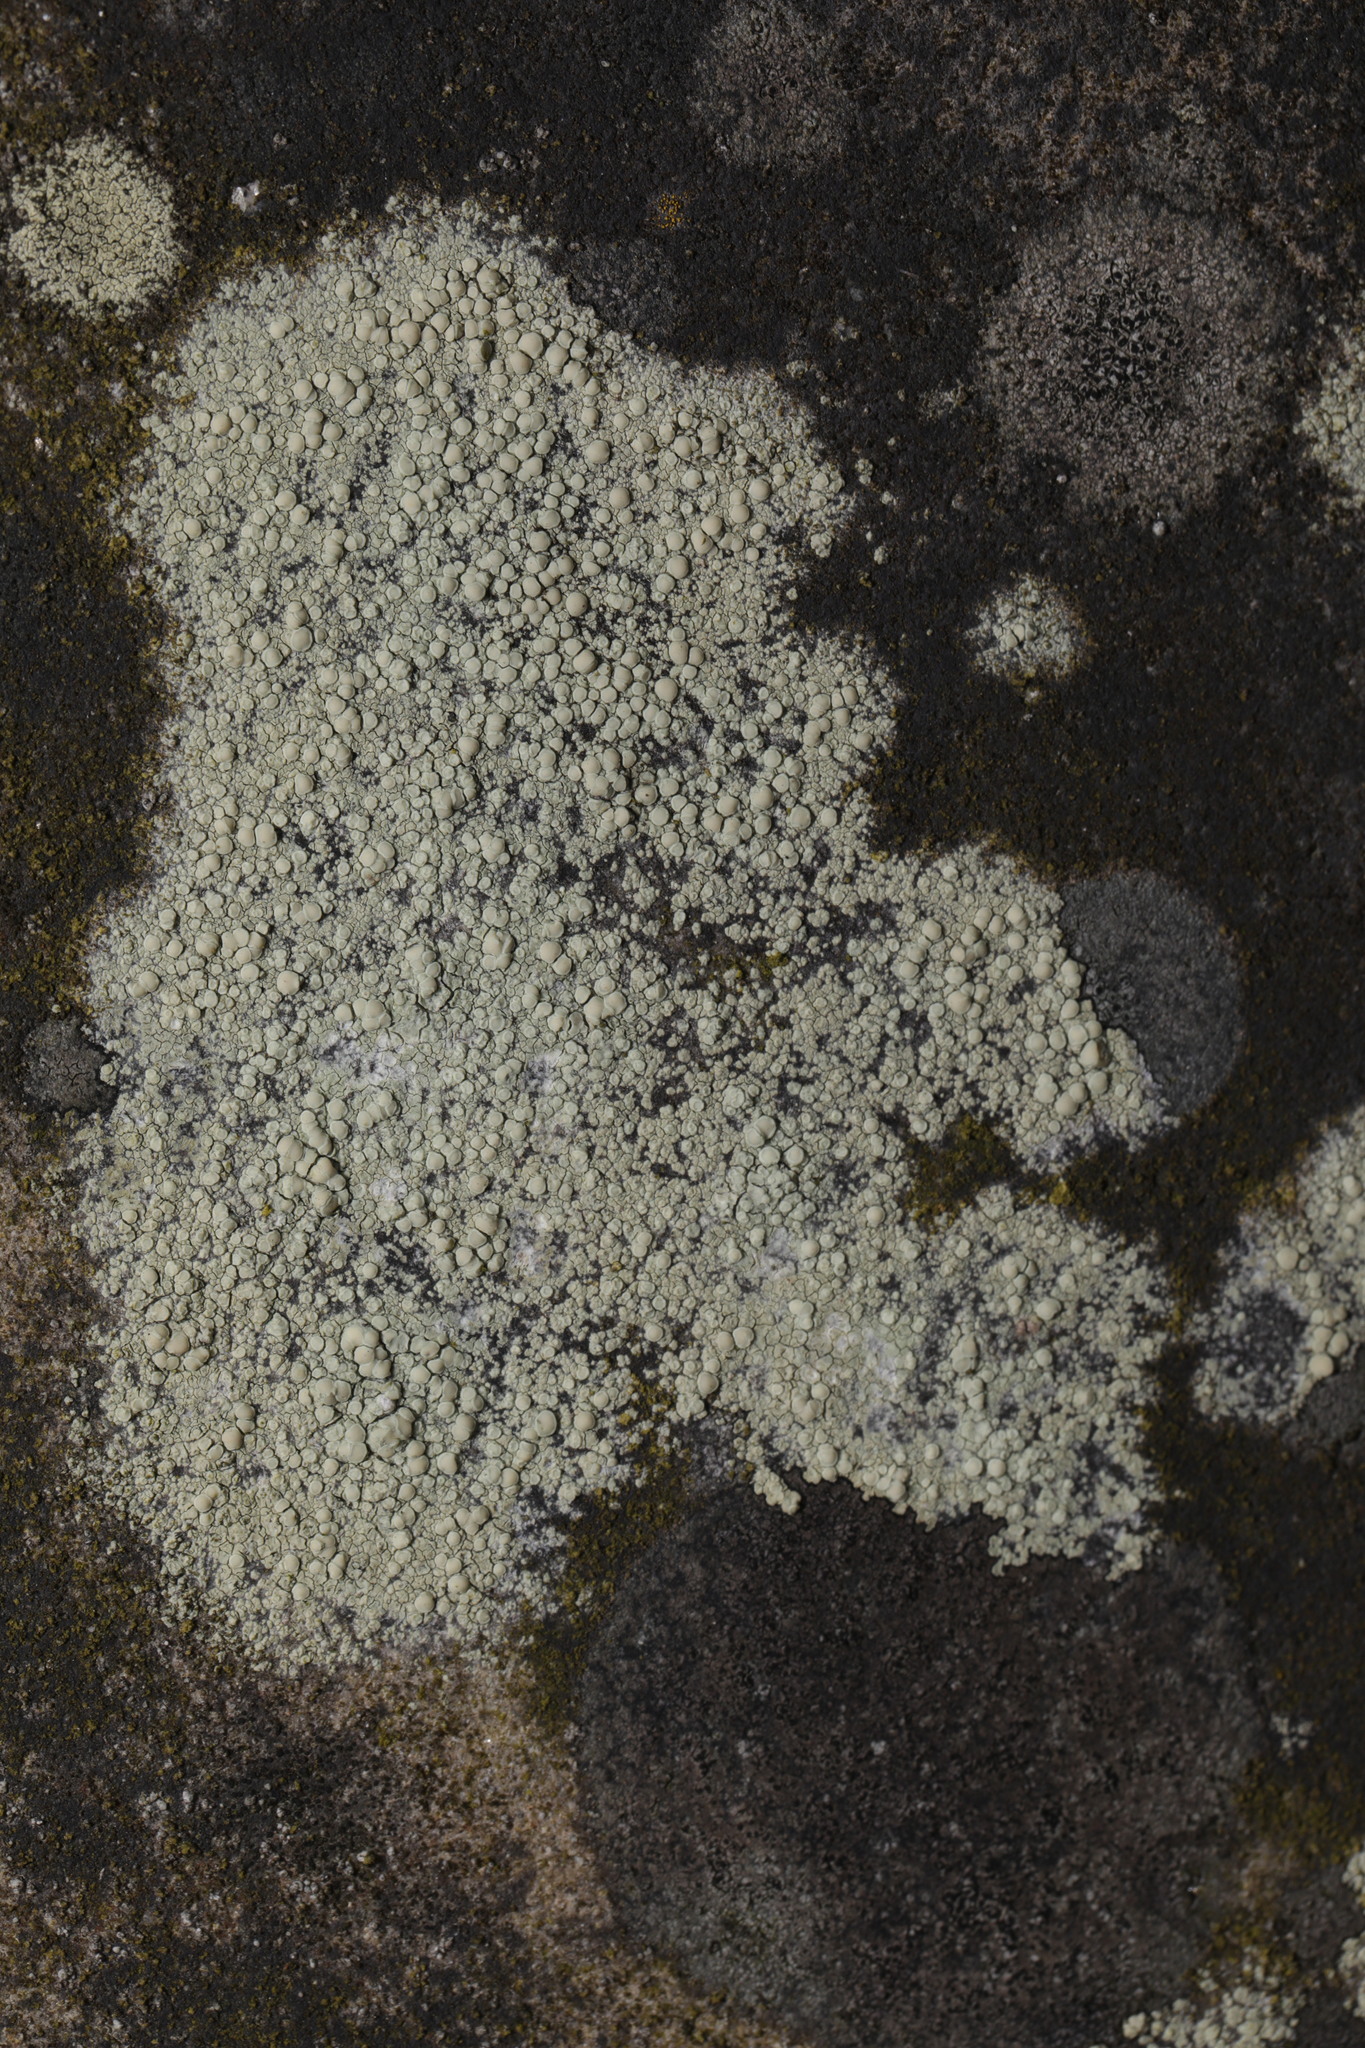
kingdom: Fungi
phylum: Ascomycota
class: Lecanoromycetes
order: Lecanorales
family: Lecanoraceae
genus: Lecanora
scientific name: Lecanora polytropa
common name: Granite-speck rim lichen
